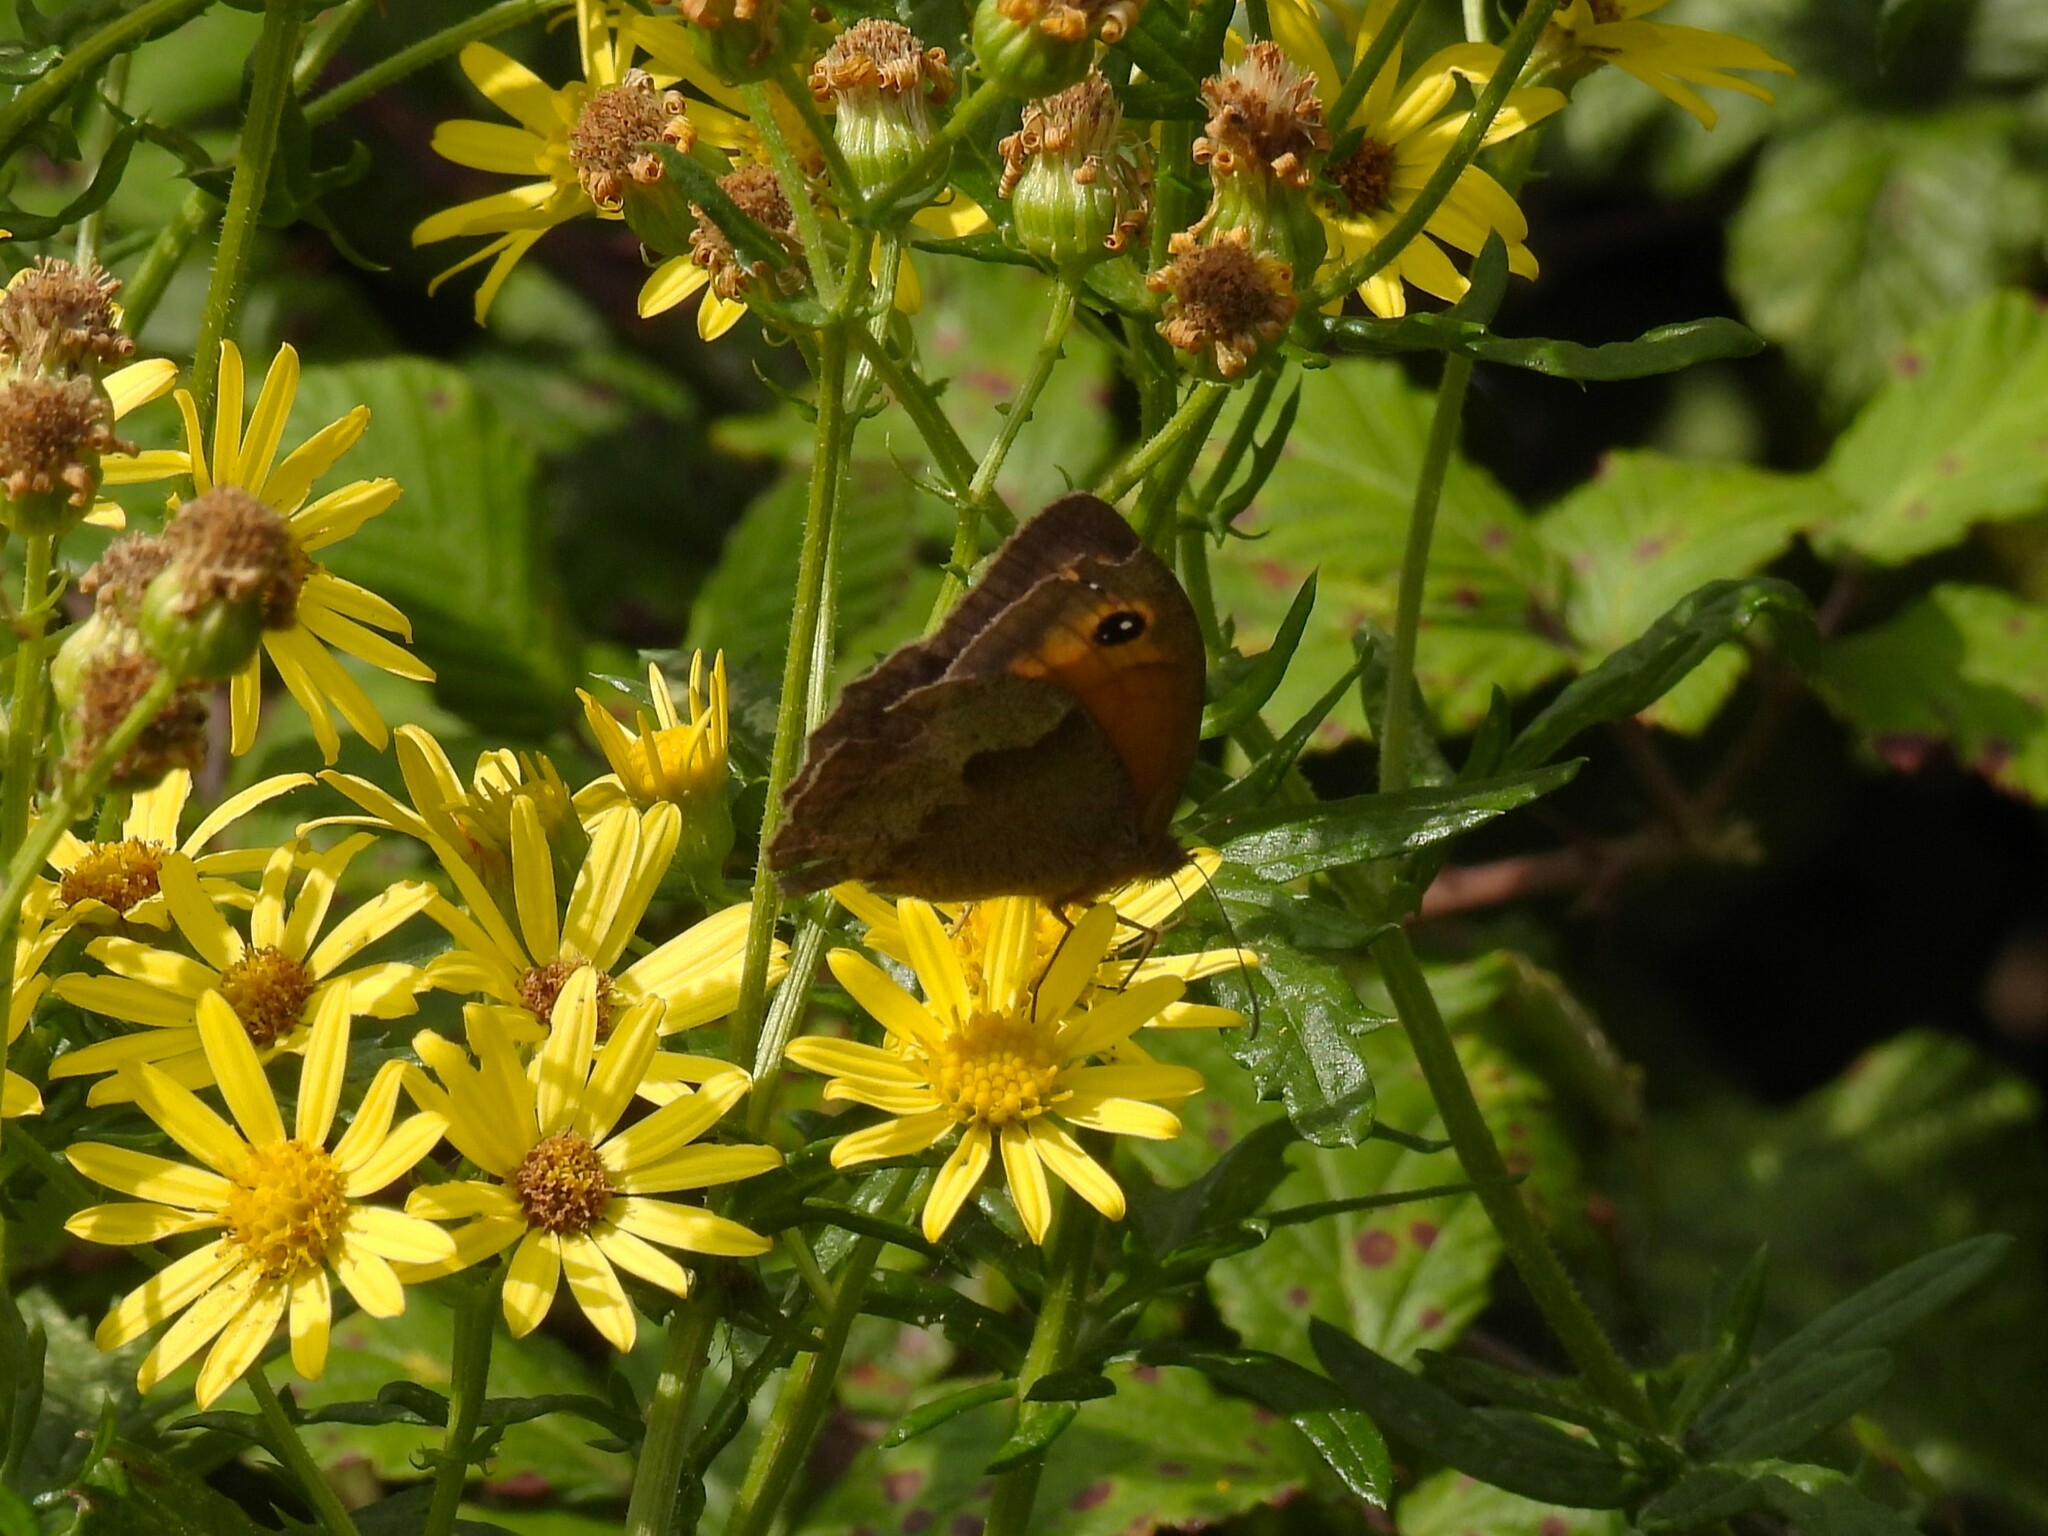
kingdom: Animalia
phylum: Arthropoda
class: Insecta
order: Lepidoptera
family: Nymphalidae
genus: Maniola
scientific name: Maniola jurtina
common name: Meadow brown
